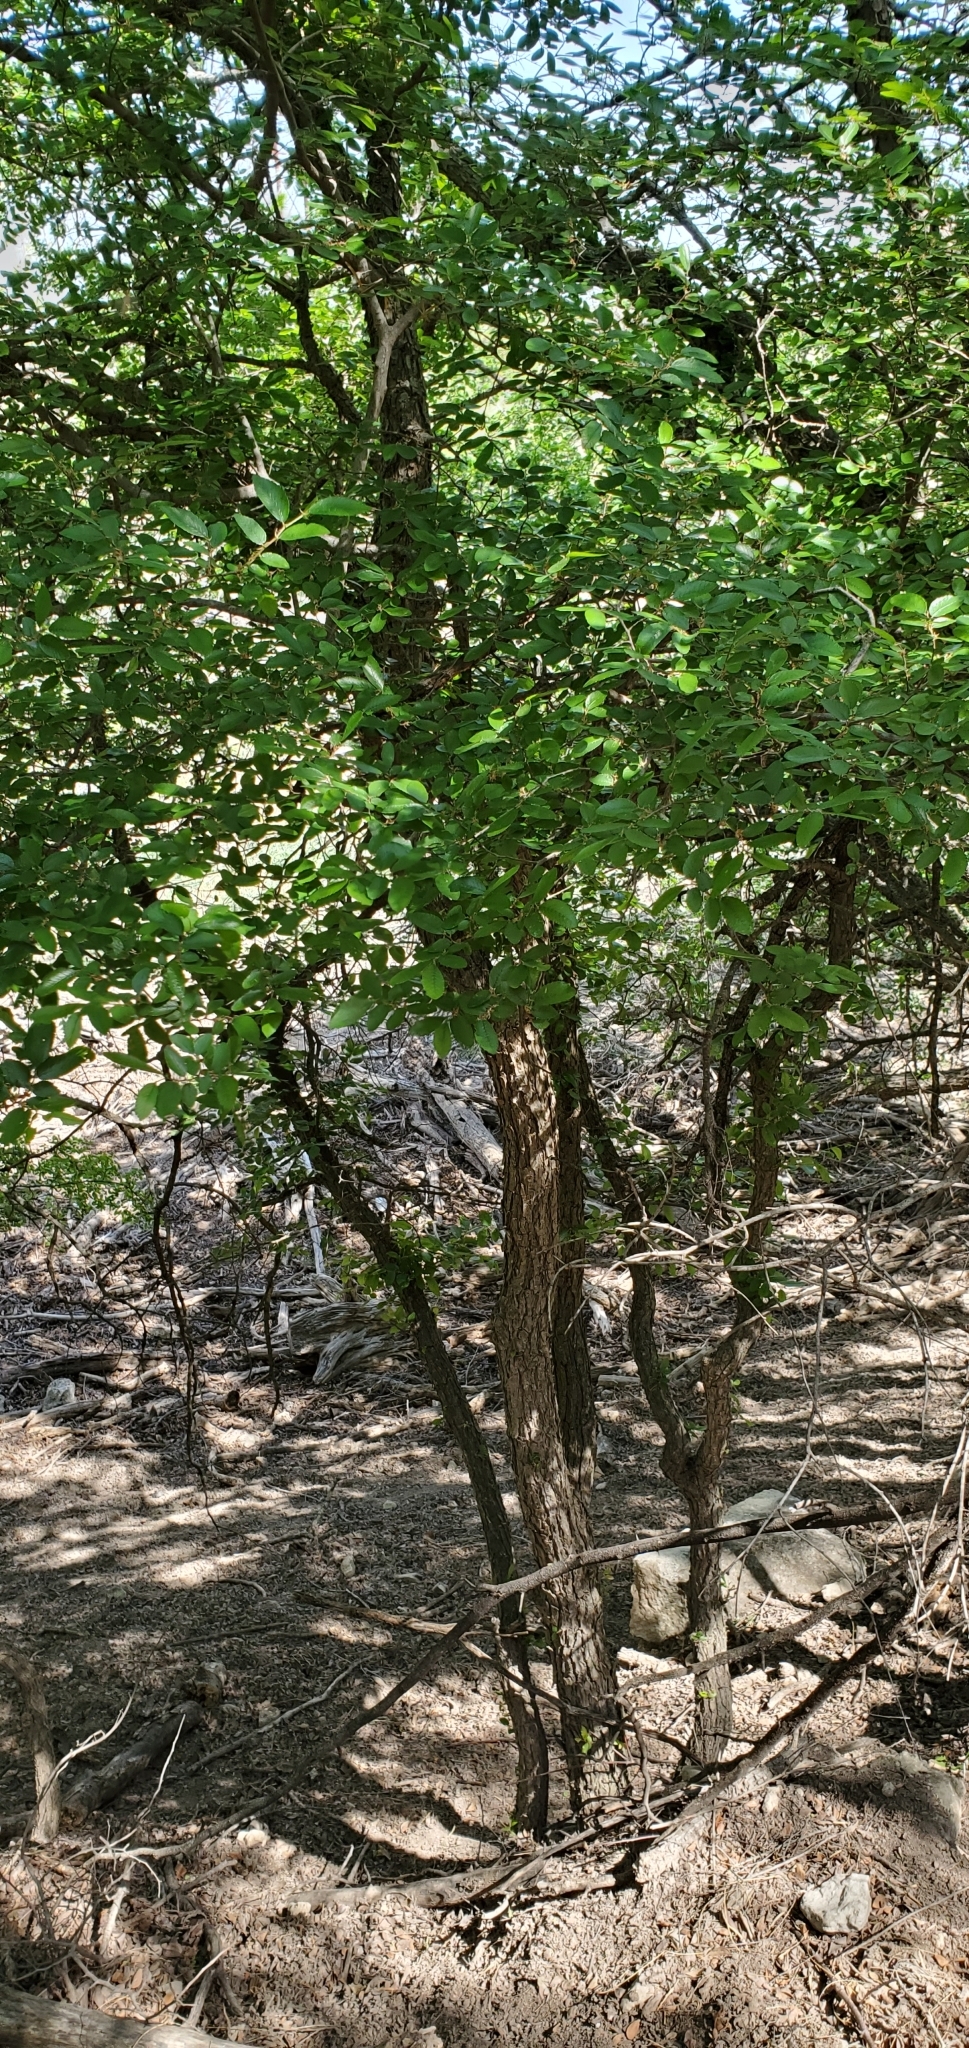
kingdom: Plantae
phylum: Tracheophyta
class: Magnoliopsida
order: Rosales
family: Ulmaceae
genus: Ulmus
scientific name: Ulmus crassifolia
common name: Basket elm
